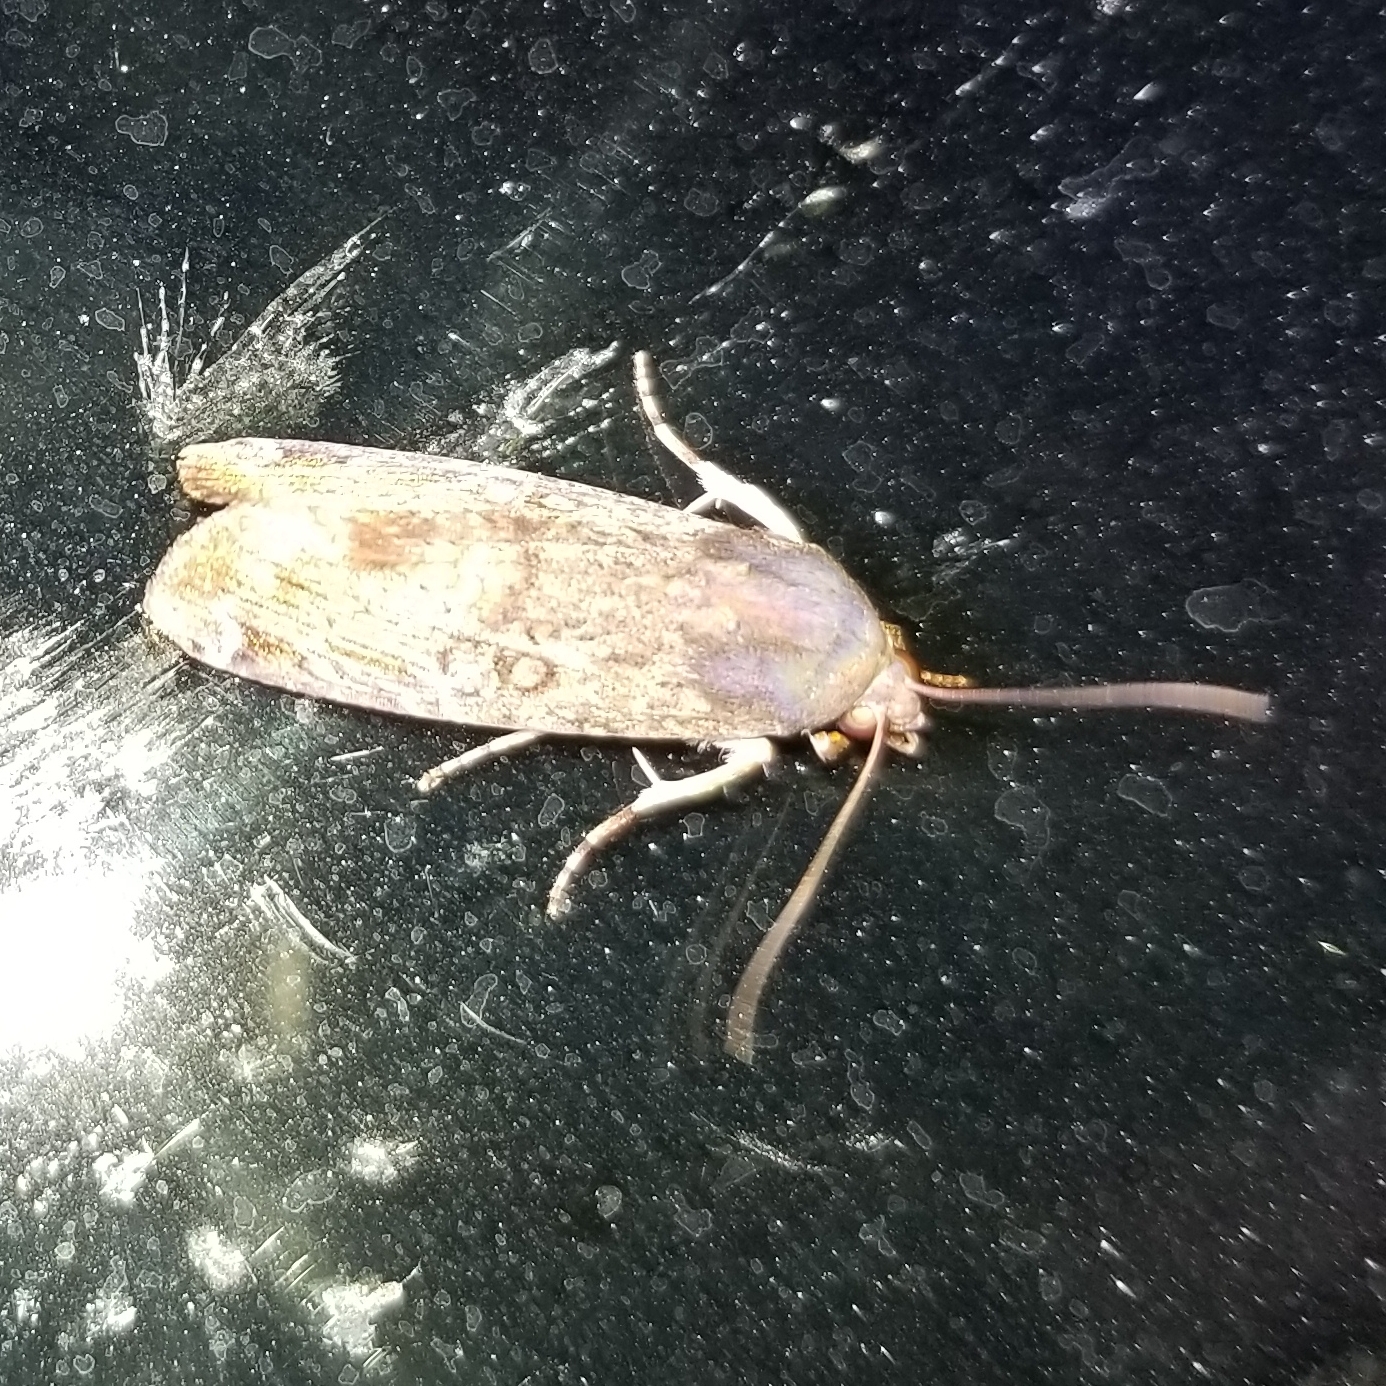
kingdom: Animalia
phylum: Arthropoda
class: Insecta
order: Lepidoptera
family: Noctuidae
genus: Magusa
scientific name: Magusa divaricata
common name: Orb narrow-winged moth
